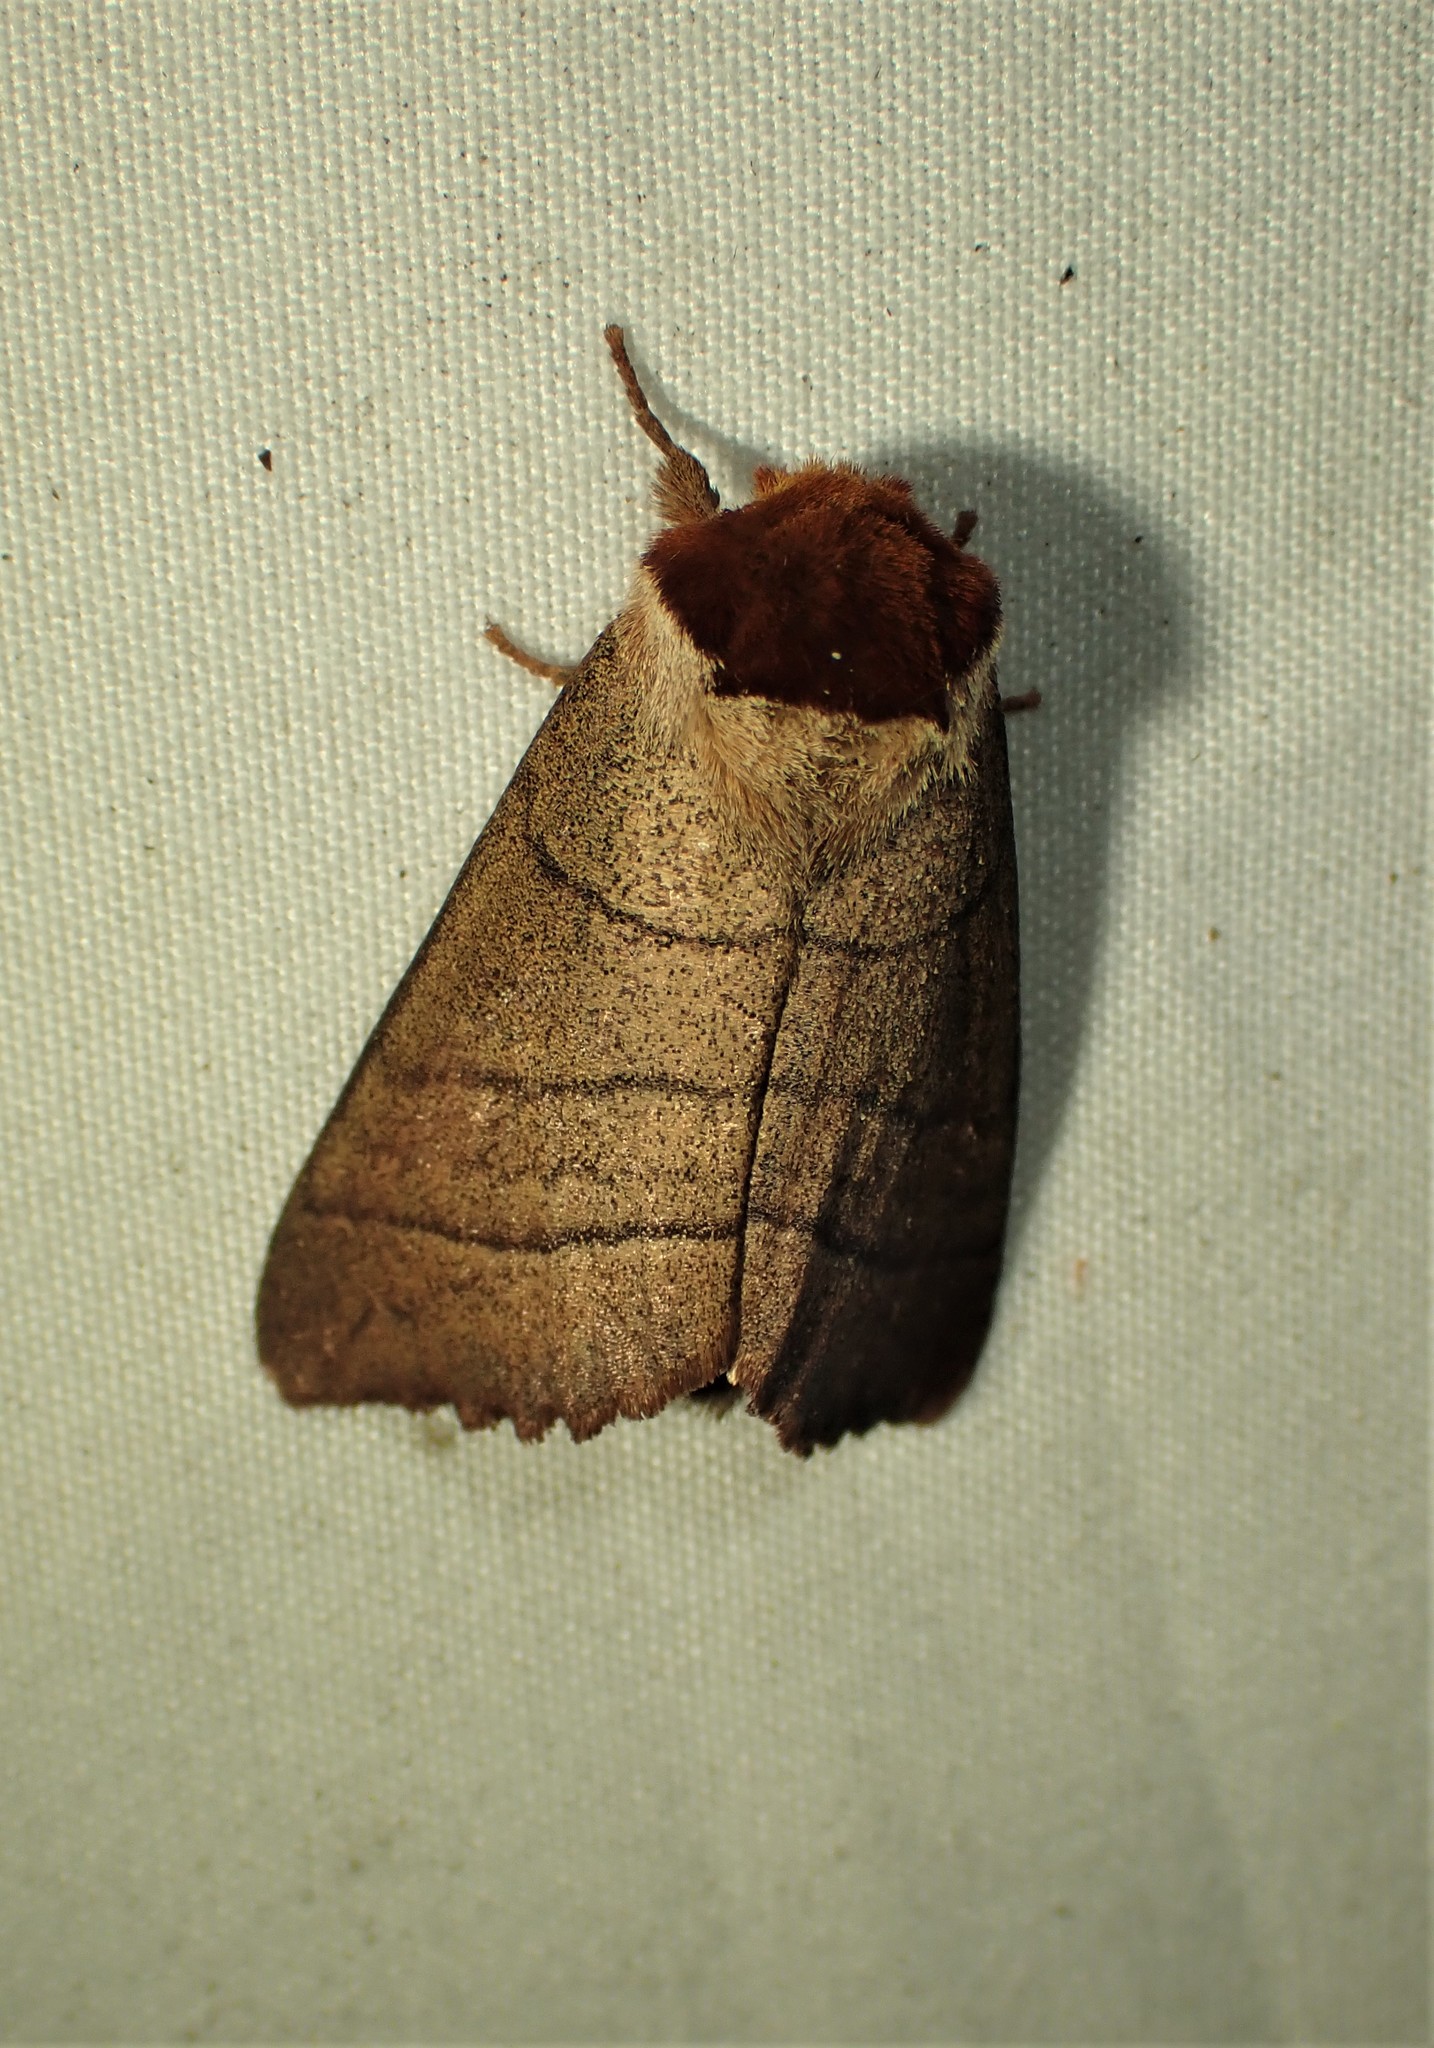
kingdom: Animalia
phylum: Arthropoda
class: Insecta
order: Lepidoptera
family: Notodontidae
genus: Datana
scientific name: Datana ministra
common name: Yellow-necked caterpillar moth
